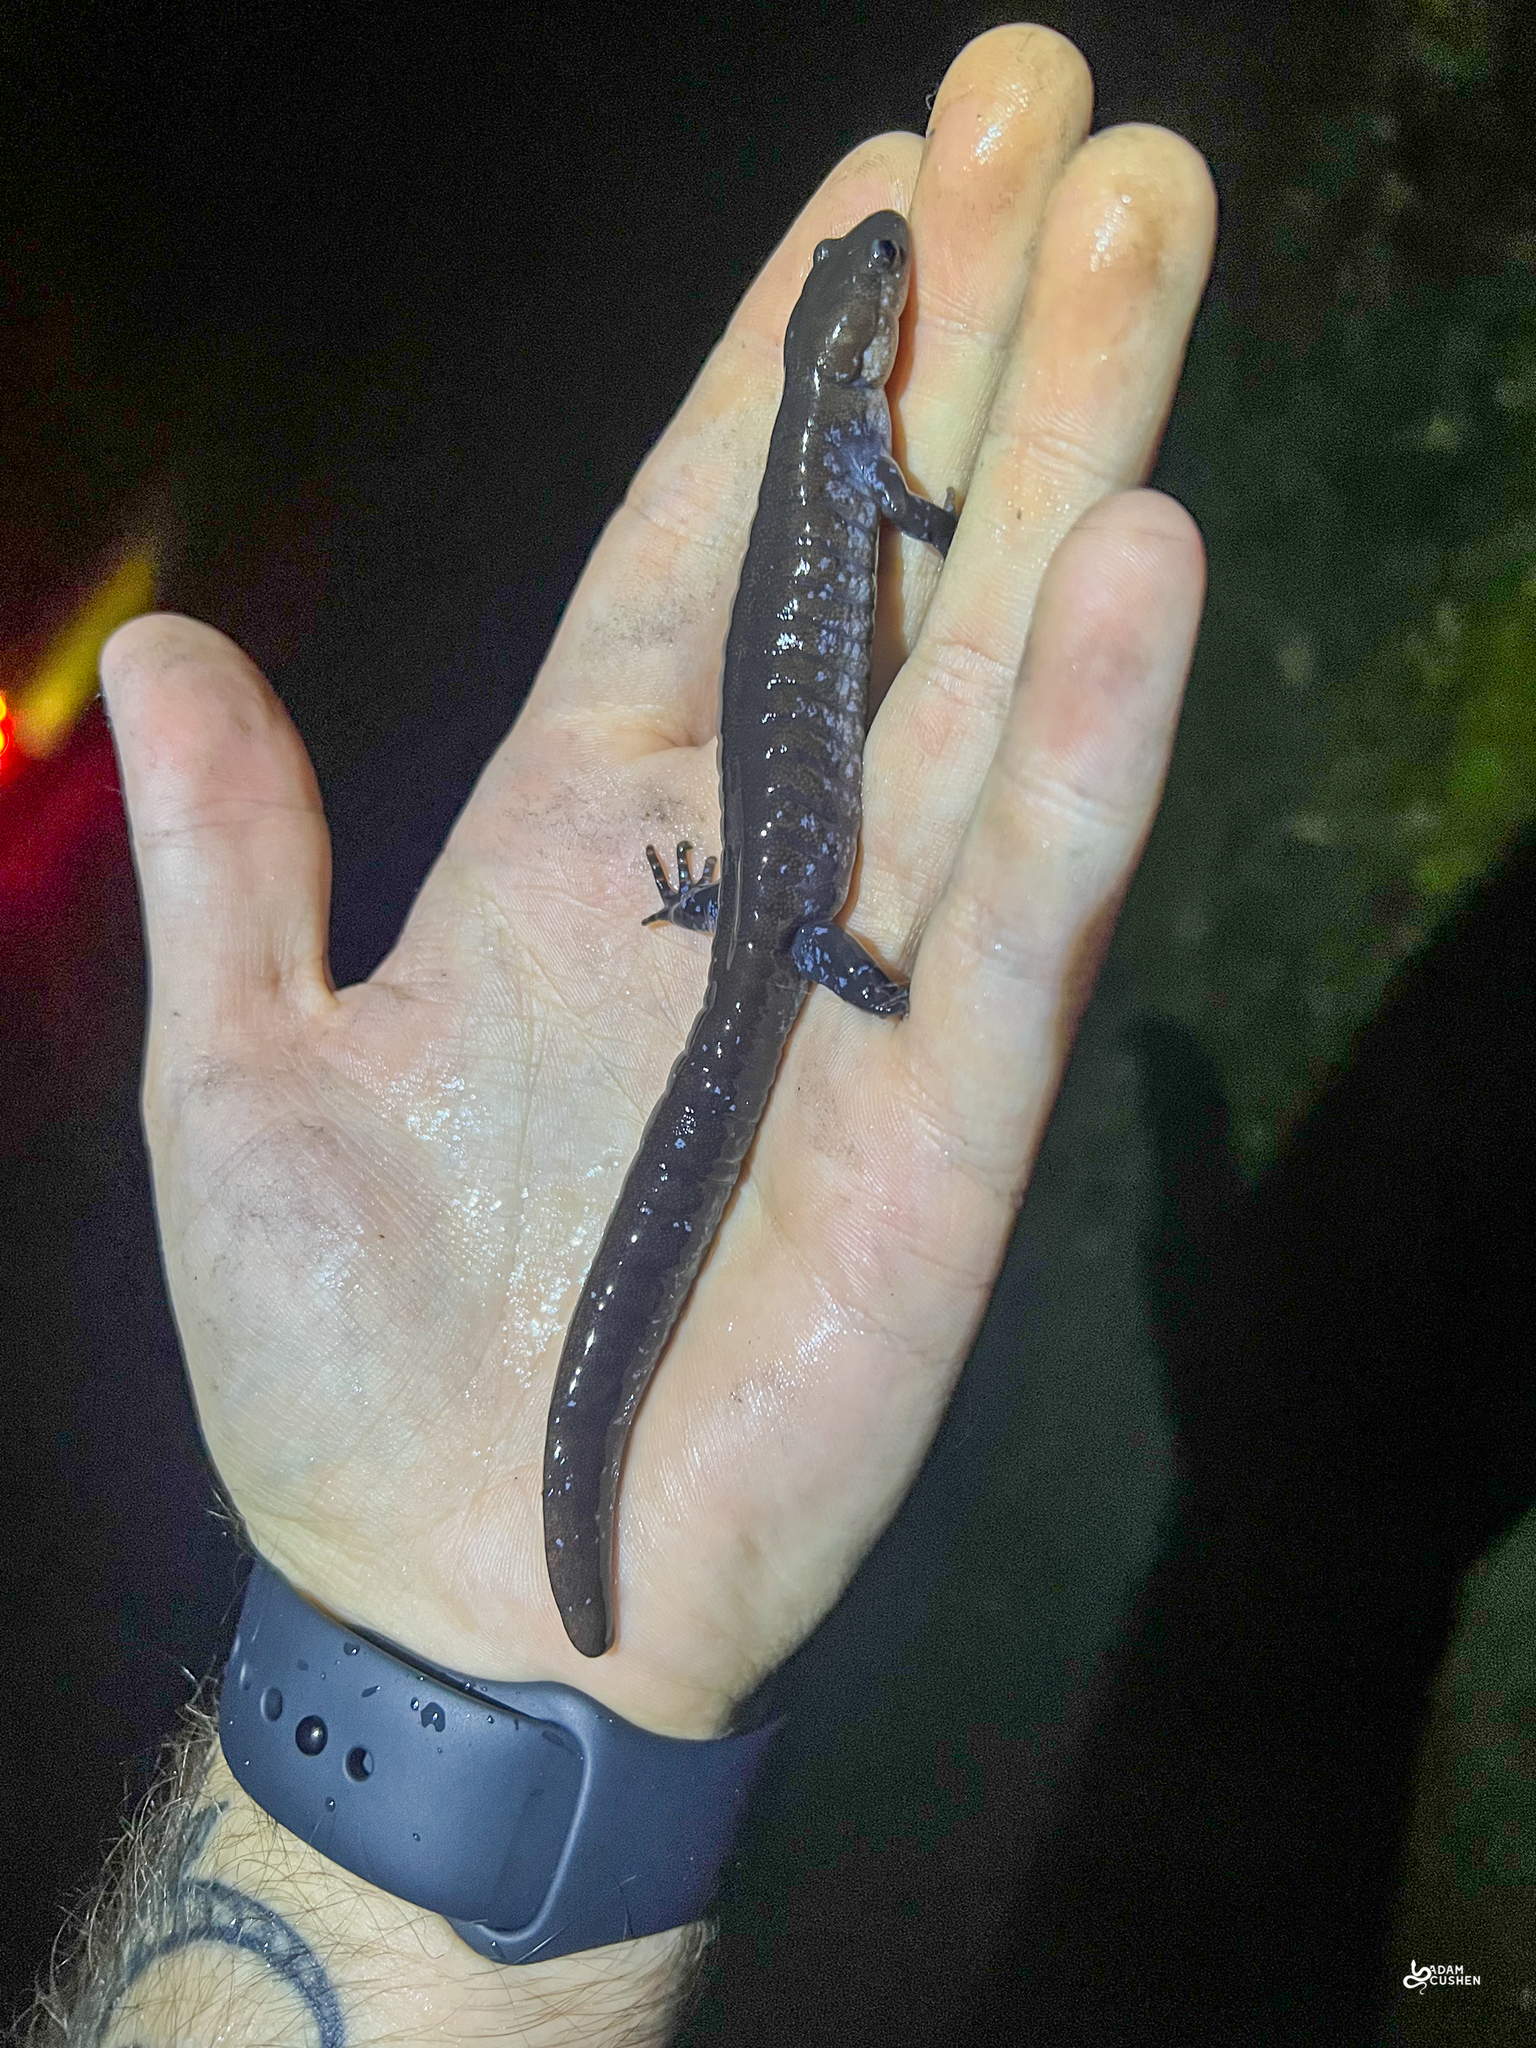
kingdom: Animalia
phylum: Chordata
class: Amphibia
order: Caudata
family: Ambystomatidae
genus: Ambystoma
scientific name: Ambystoma unisexual
